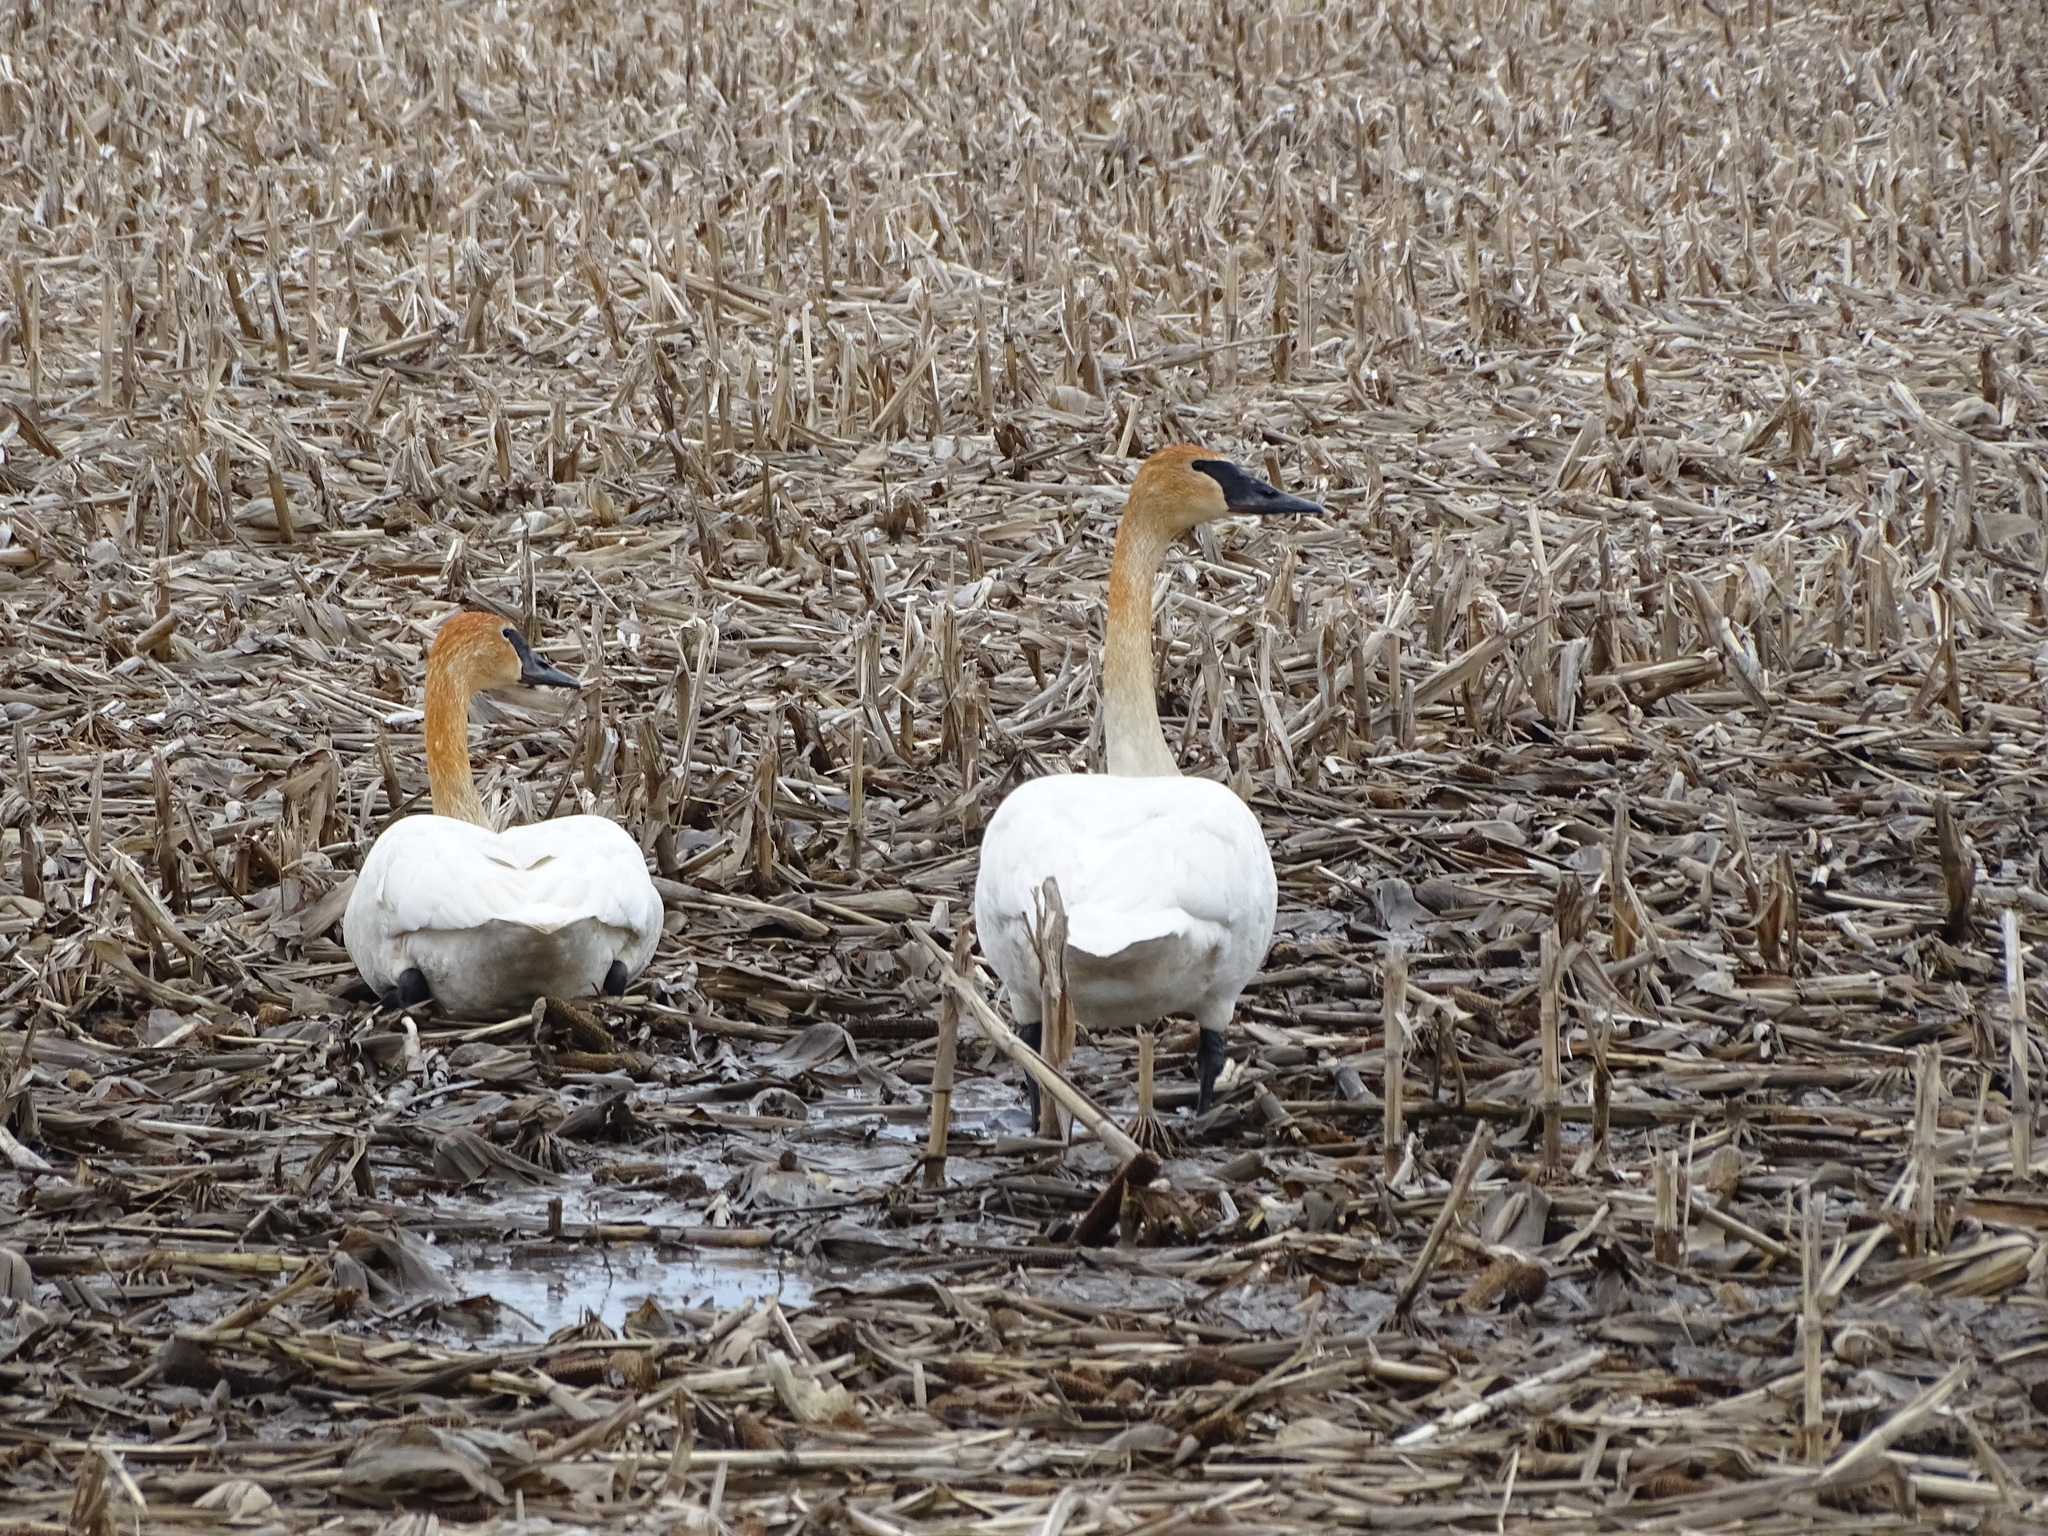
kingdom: Animalia
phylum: Chordata
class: Aves
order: Anseriformes
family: Anatidae
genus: Cygnus
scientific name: Cygnus buccinator
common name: Trumpeter swan
